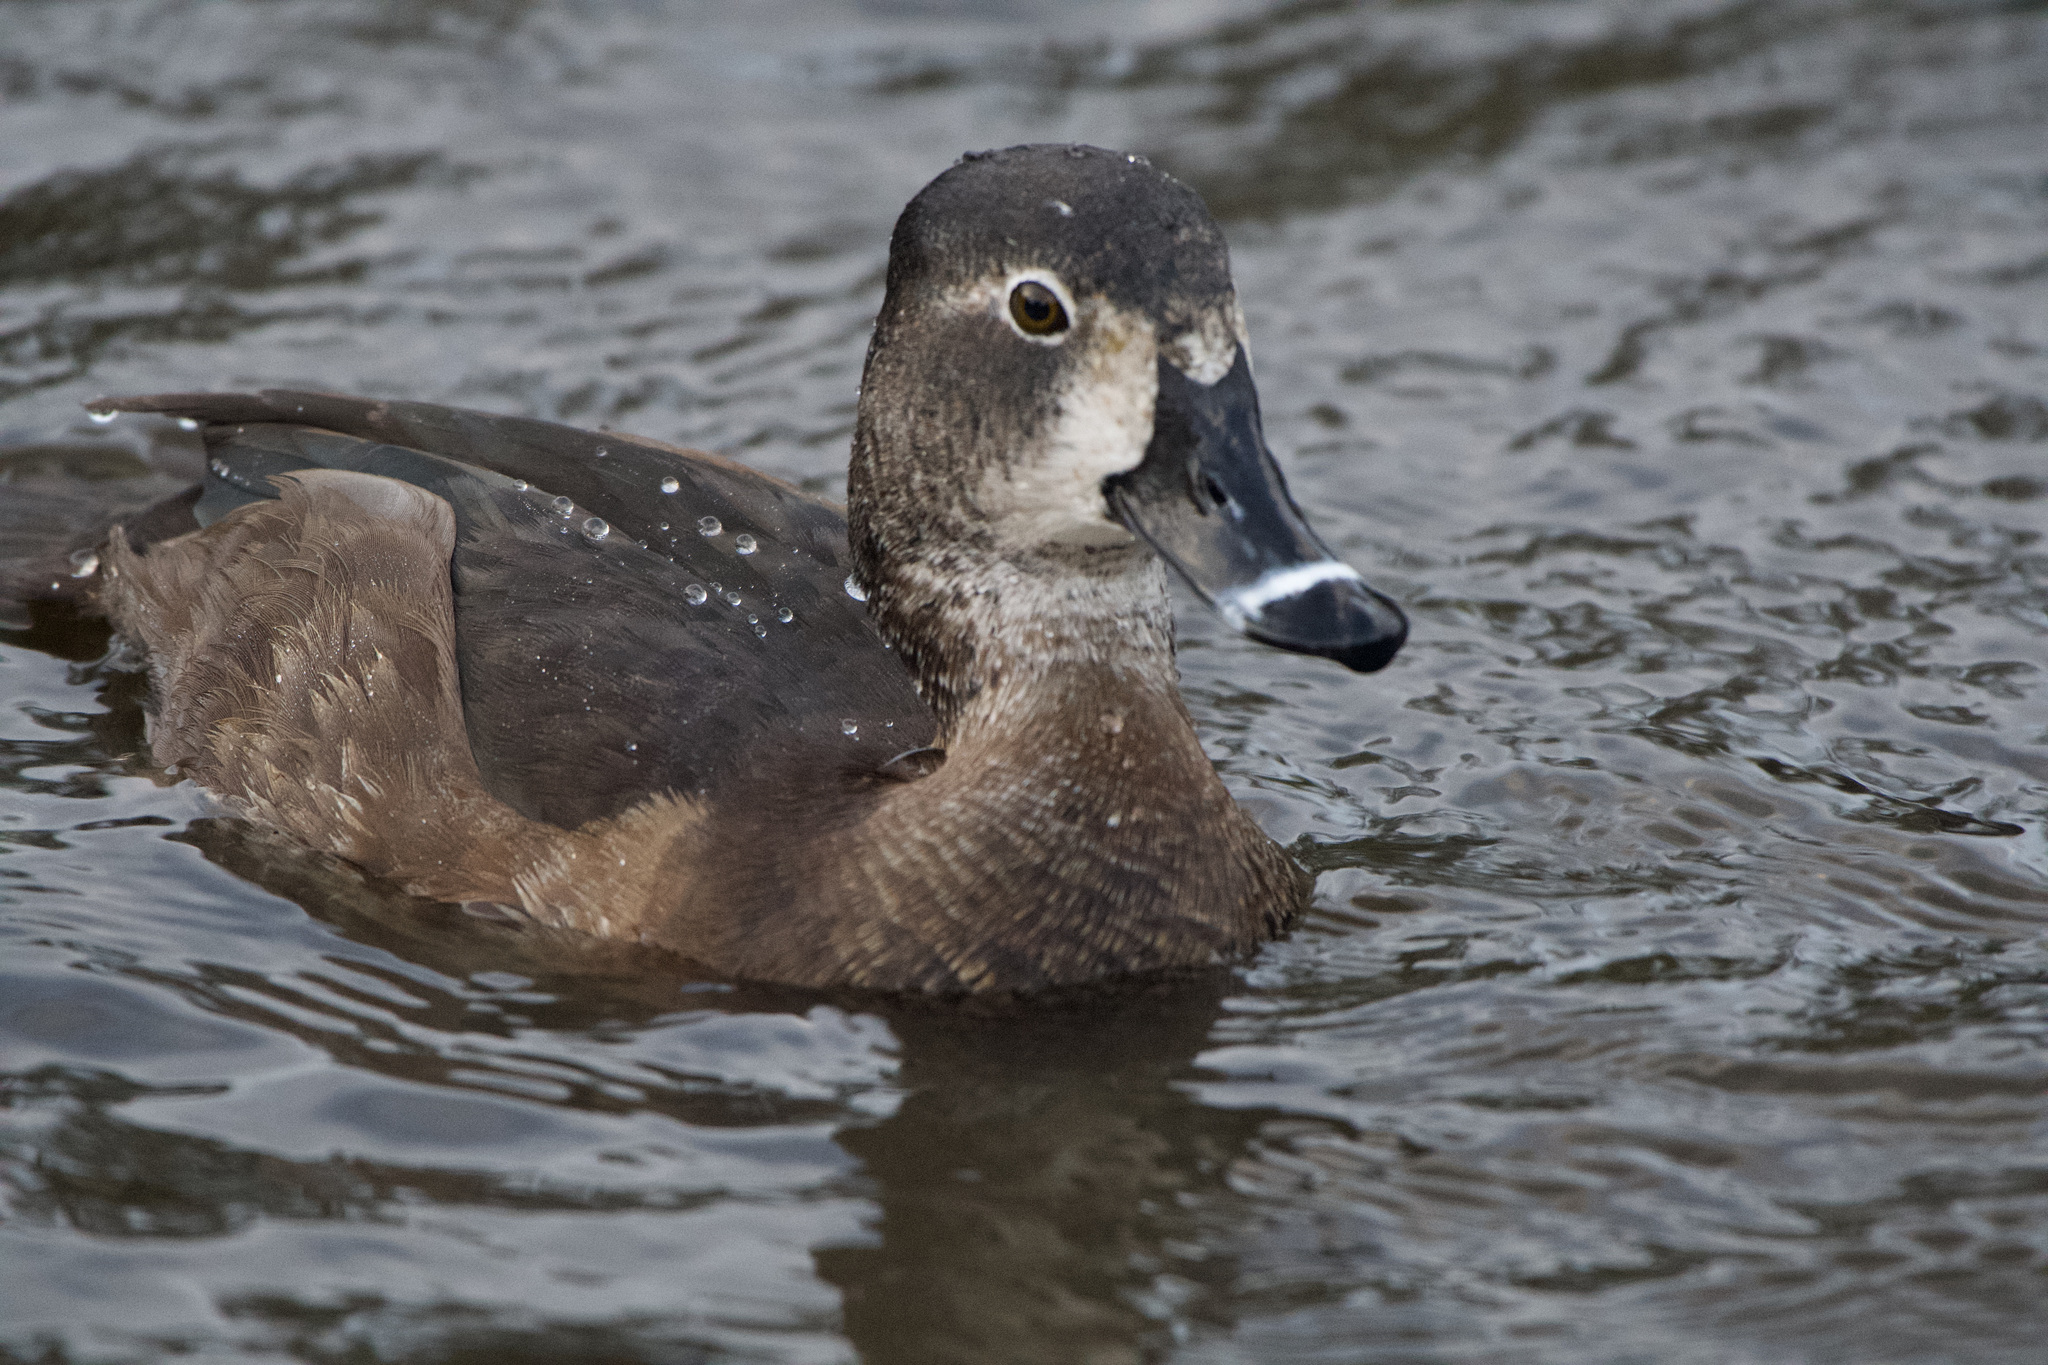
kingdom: Animalia
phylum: Chordata
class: Aves
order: Anseriformes
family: Anatidae
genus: Aythya
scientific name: Aythya collaris
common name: Ring-necked duck
